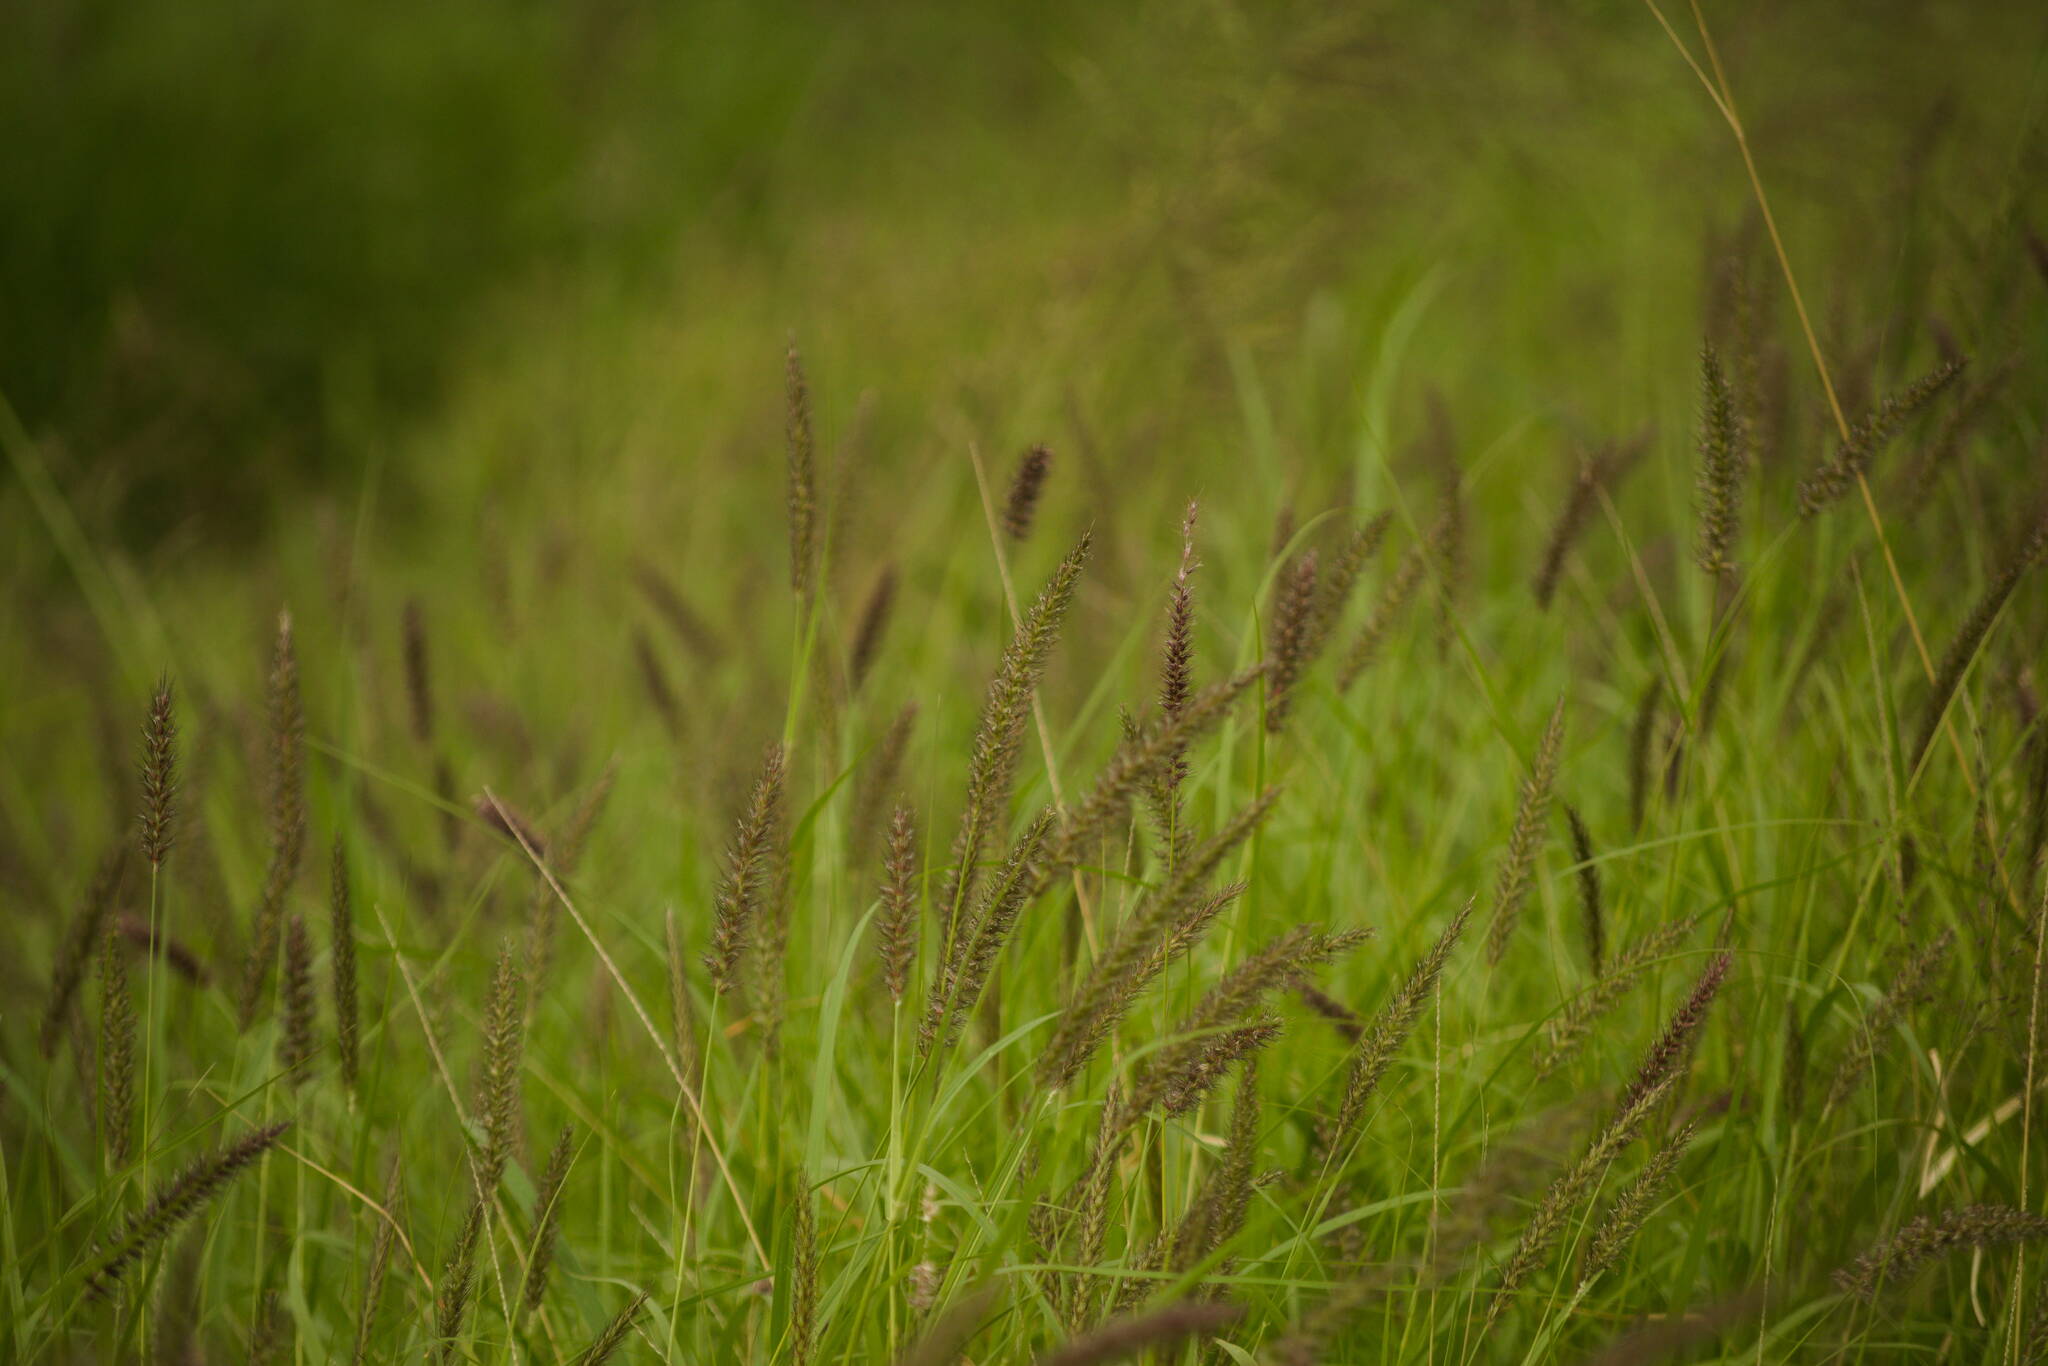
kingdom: Plantae
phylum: Tracheophyta
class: Liliopsida
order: Poales
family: Poaceae
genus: Cenchrus
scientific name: Cenchrus ciliaris
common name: Buffelgrass
